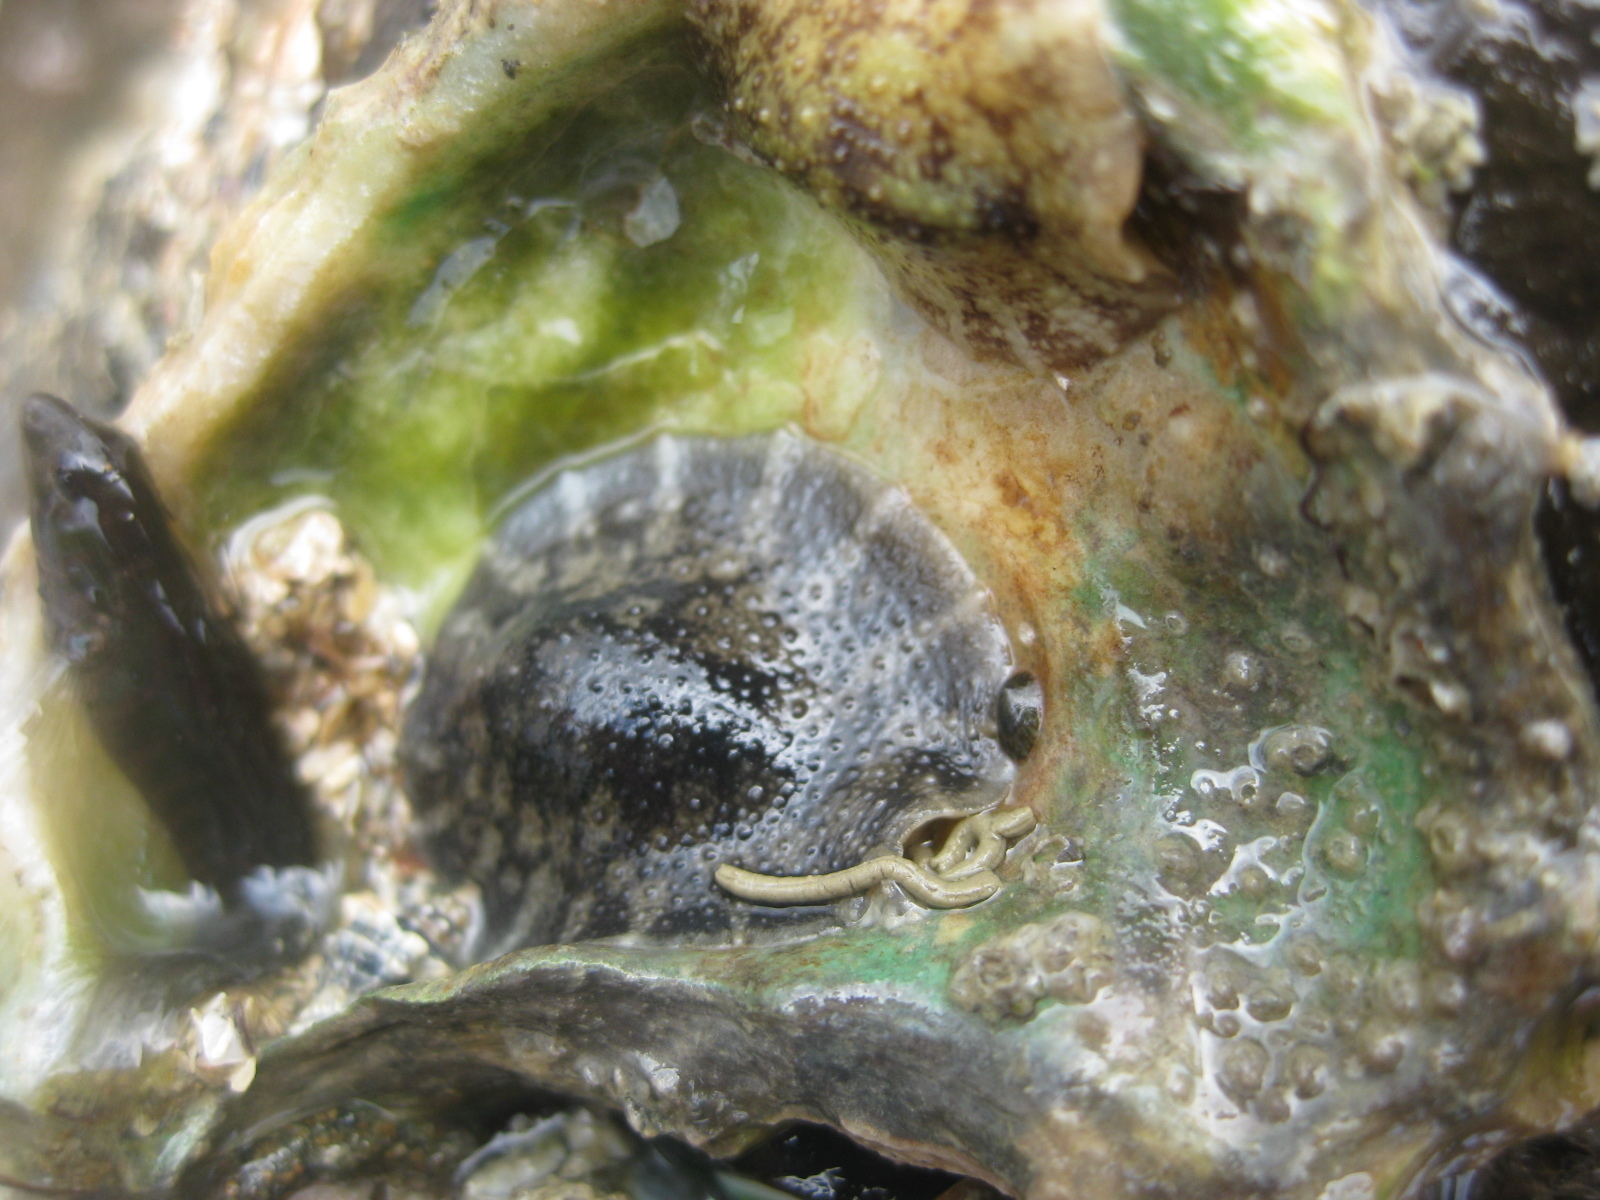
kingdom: Animalia
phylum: Mollusca
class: Gastropoda
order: Systellommatophora
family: Onchidiidae
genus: Onchidella
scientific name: Onchidella nigricans
